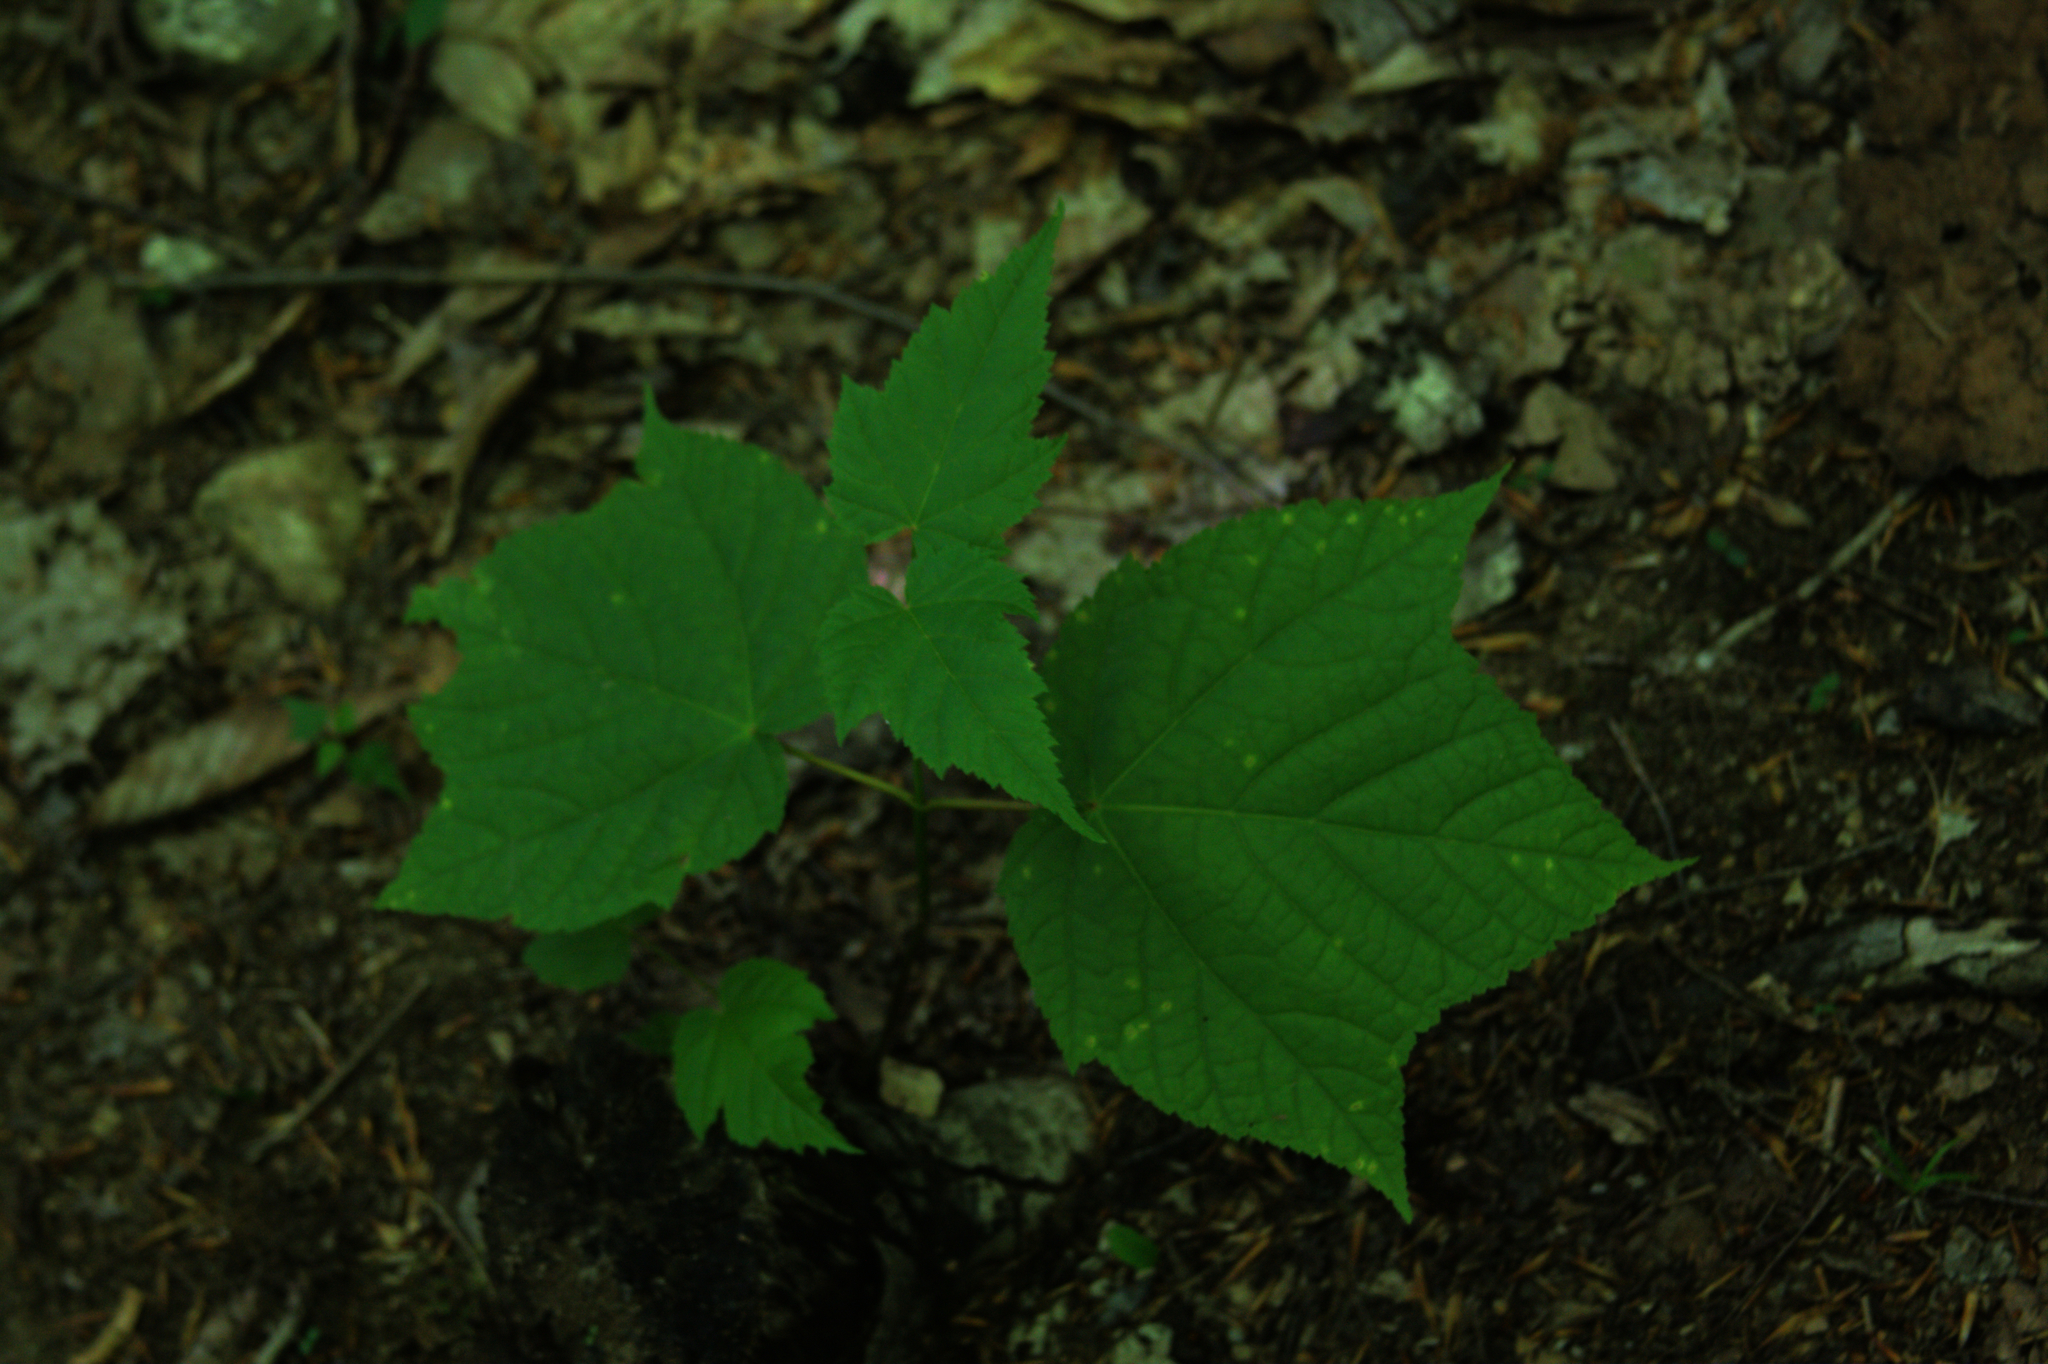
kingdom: Plantae
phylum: Tracheophyta
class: Magnoliopsida
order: Sapindales
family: Sapindaceae
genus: Acer
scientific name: Acer pensylvanicum
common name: Moosewood
